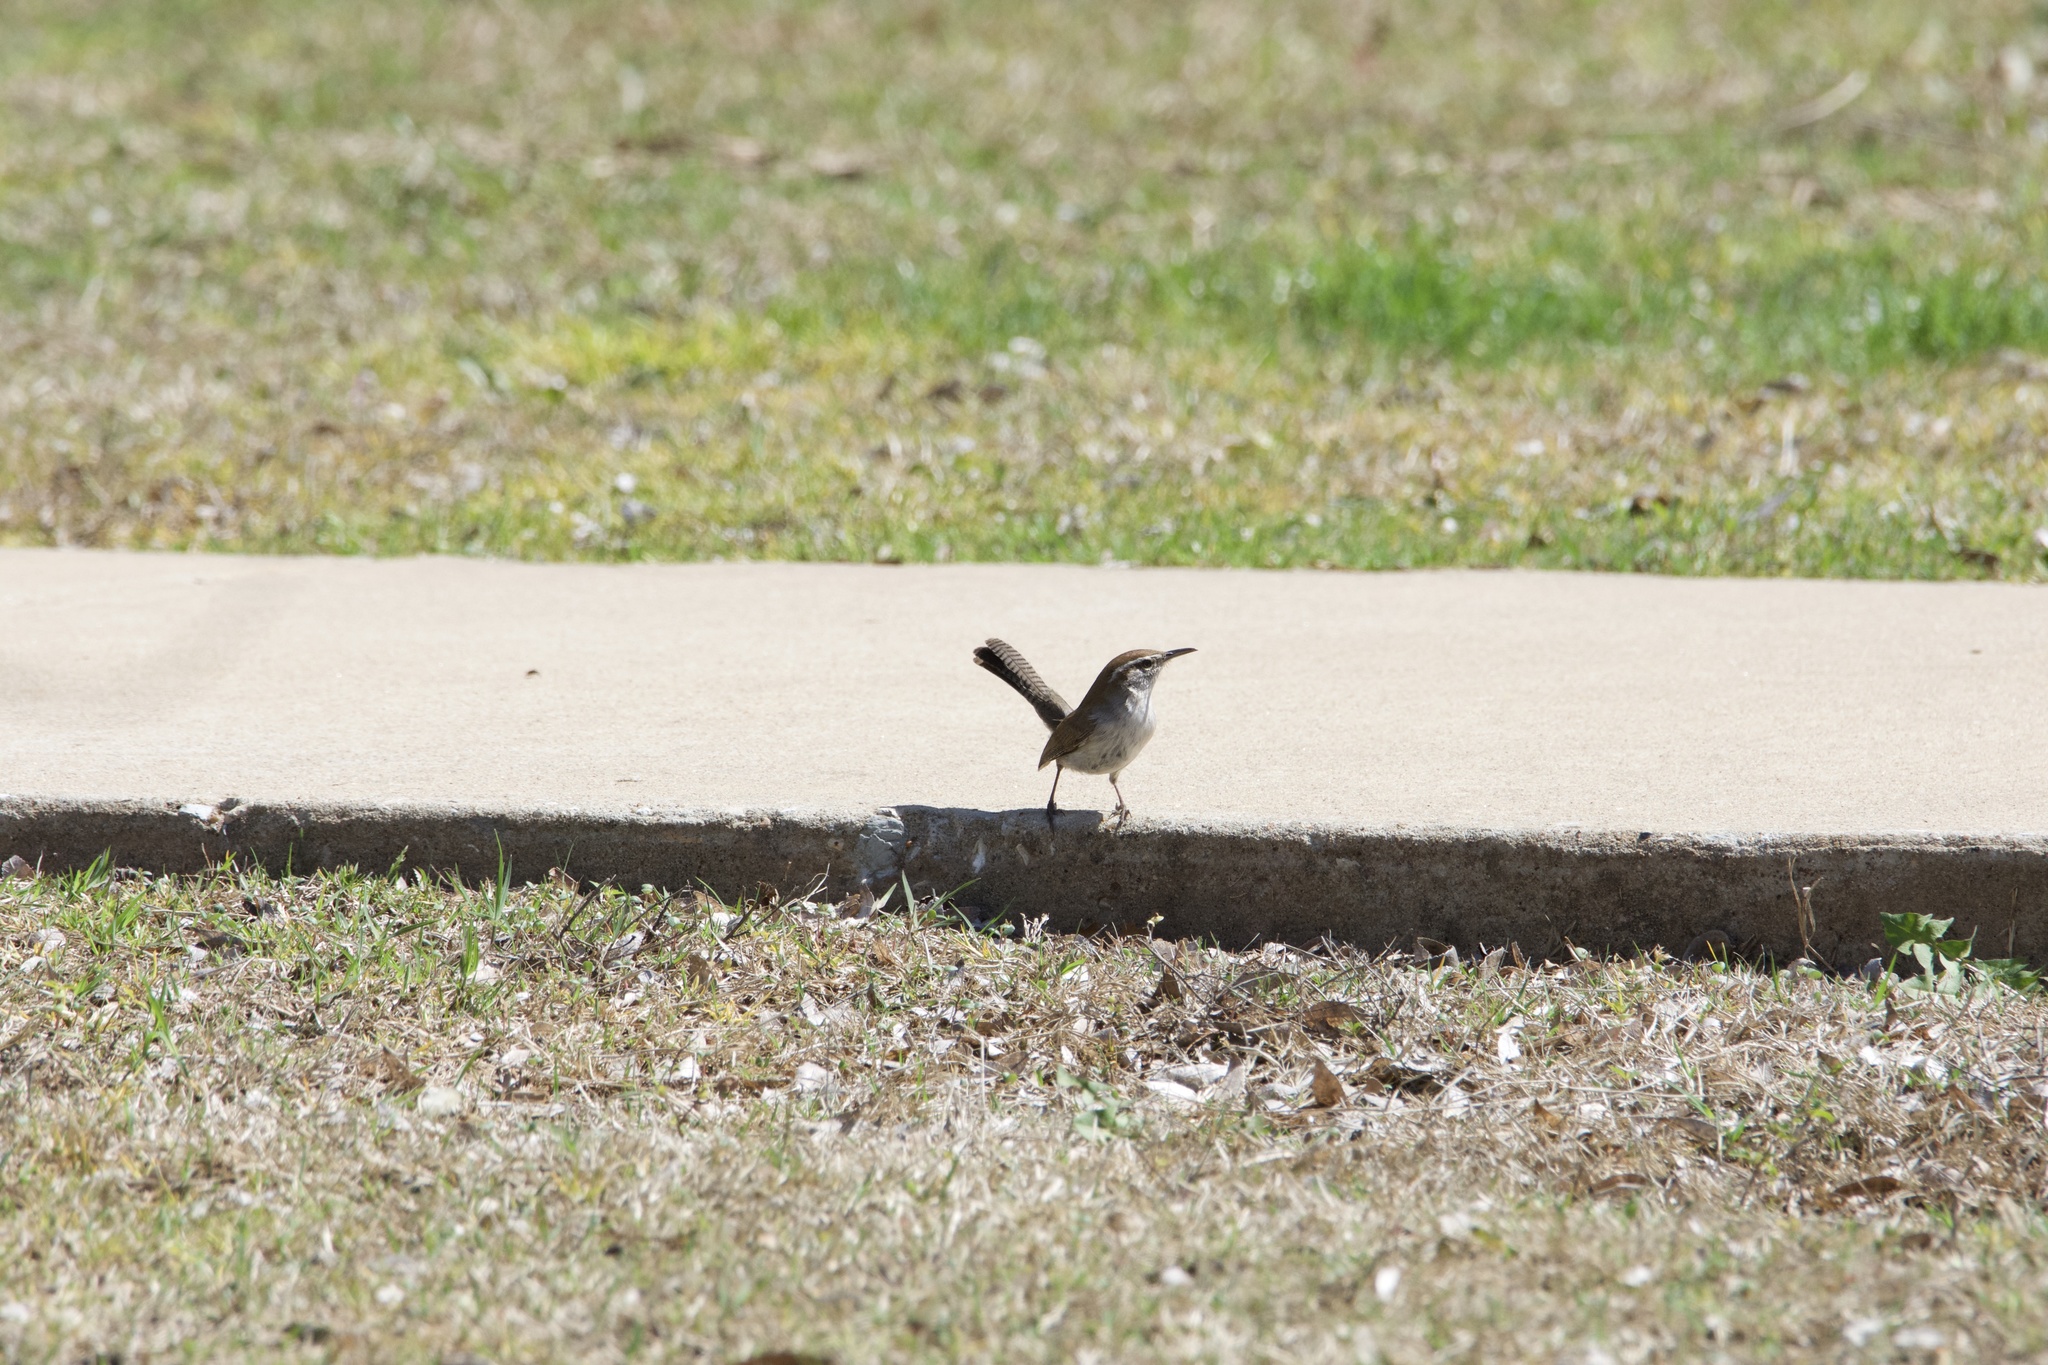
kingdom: Animalia
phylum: Chordata
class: Aves
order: Passeriformes
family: Troglodytidae
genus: Thryomanes
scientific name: Thryomanes bewickii
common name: Bewick's wren
